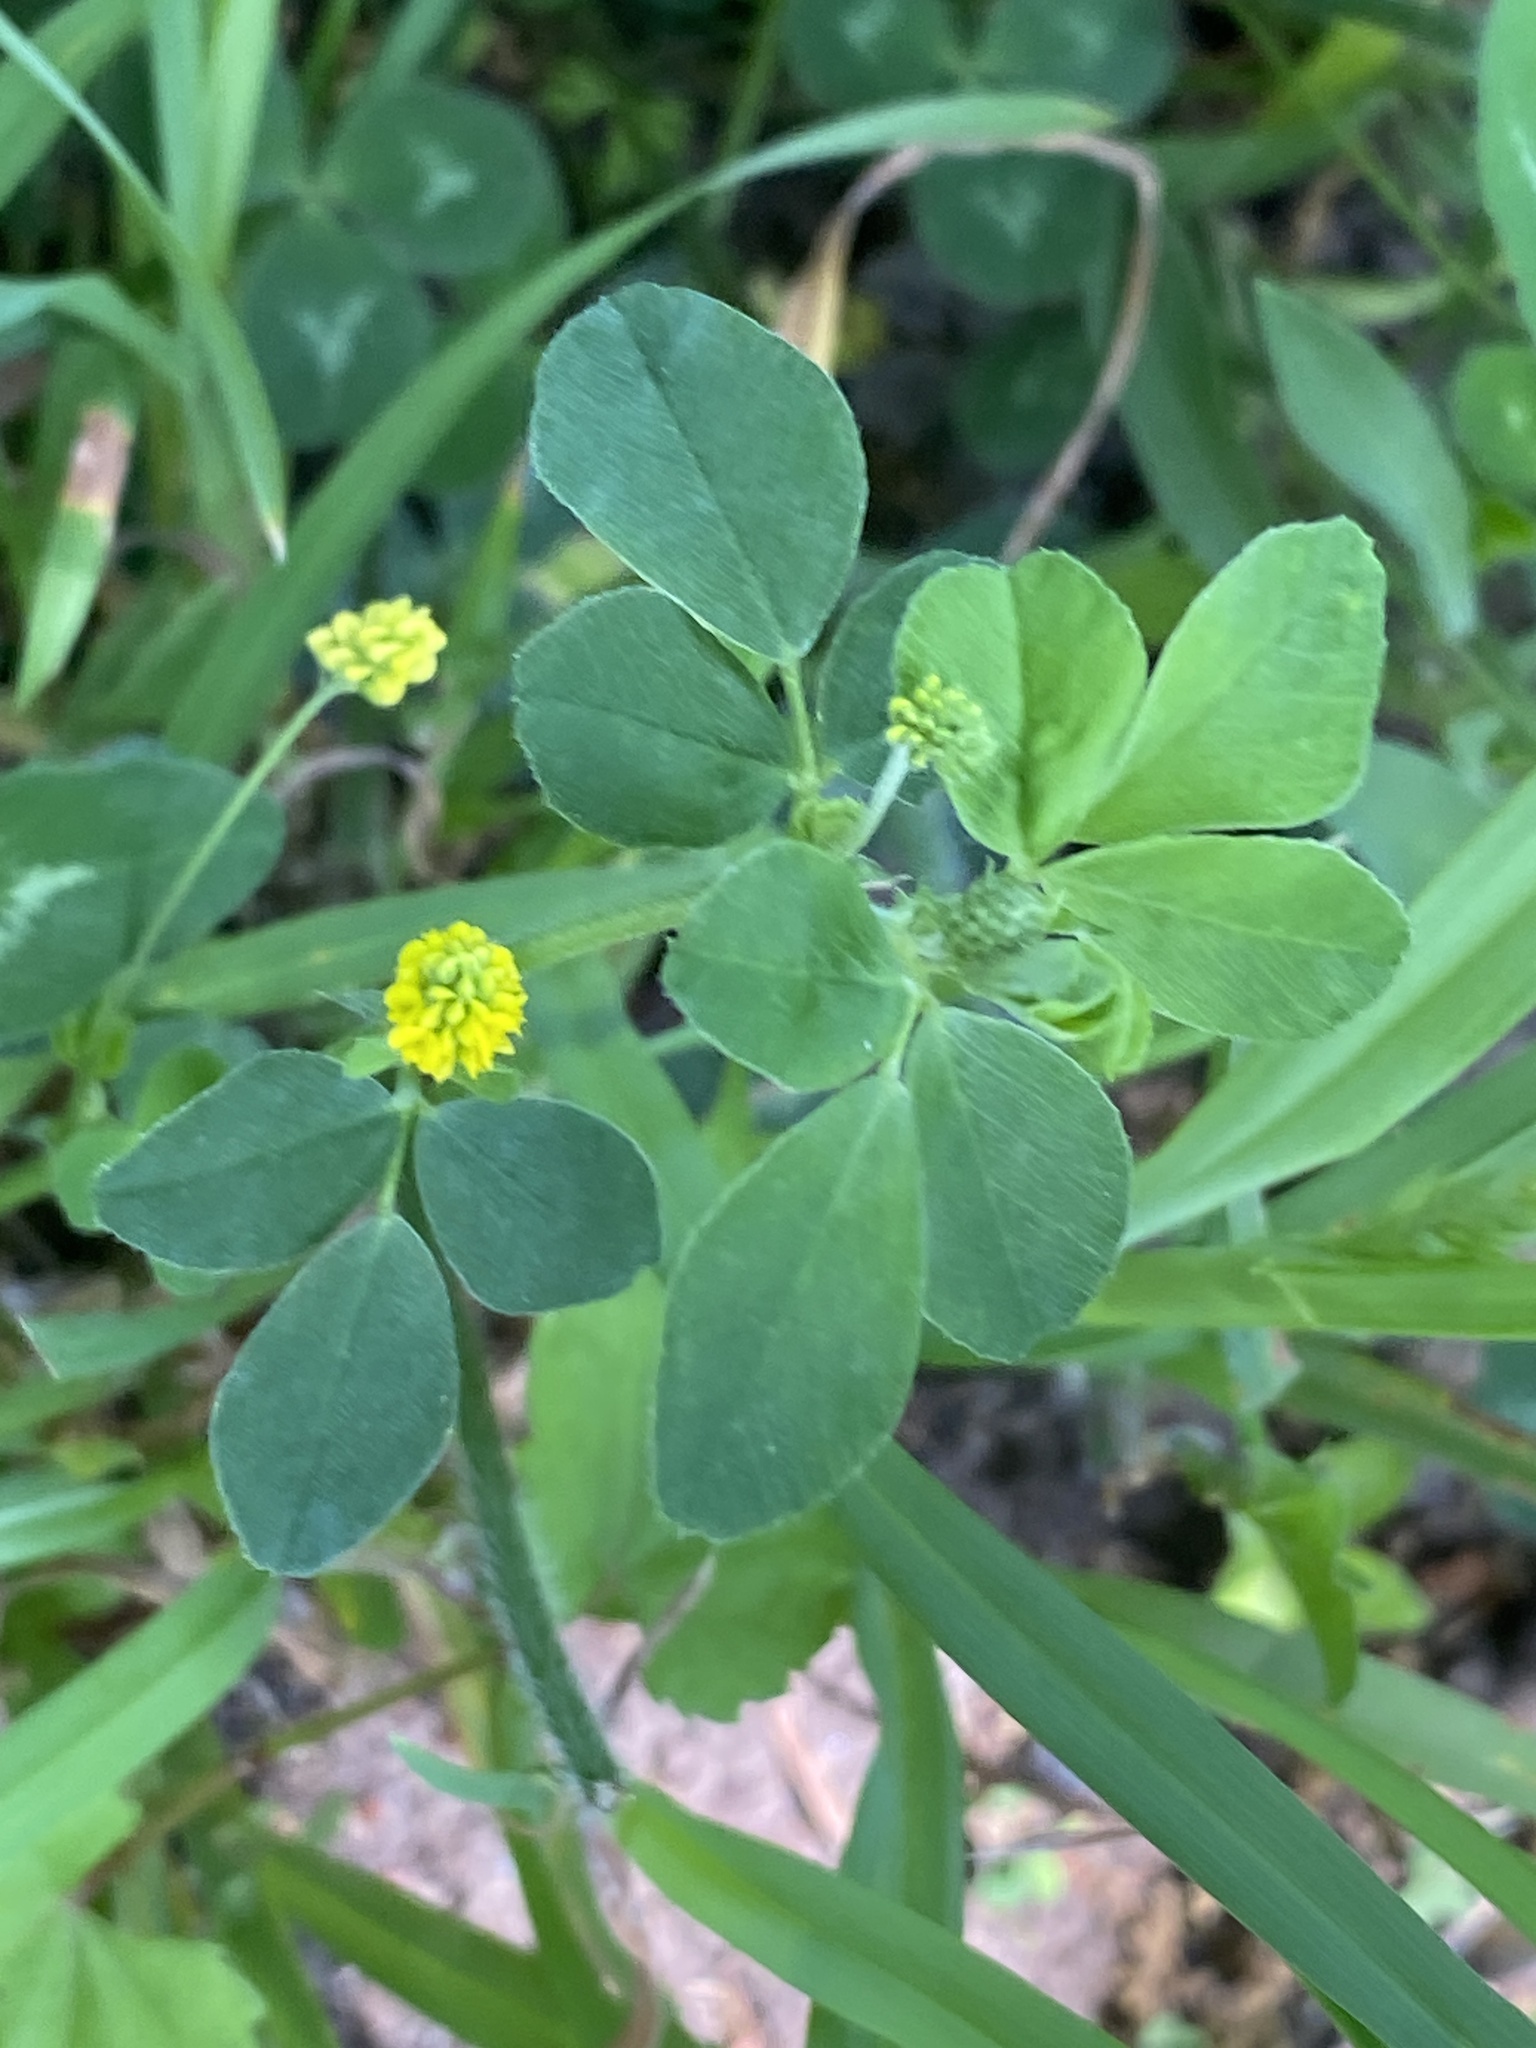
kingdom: Plantae
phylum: Tracheophyta
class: Magnoliopsida
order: Fabales
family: Fabaceae
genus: Medicago
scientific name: Medicago lupulina
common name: Black medick
